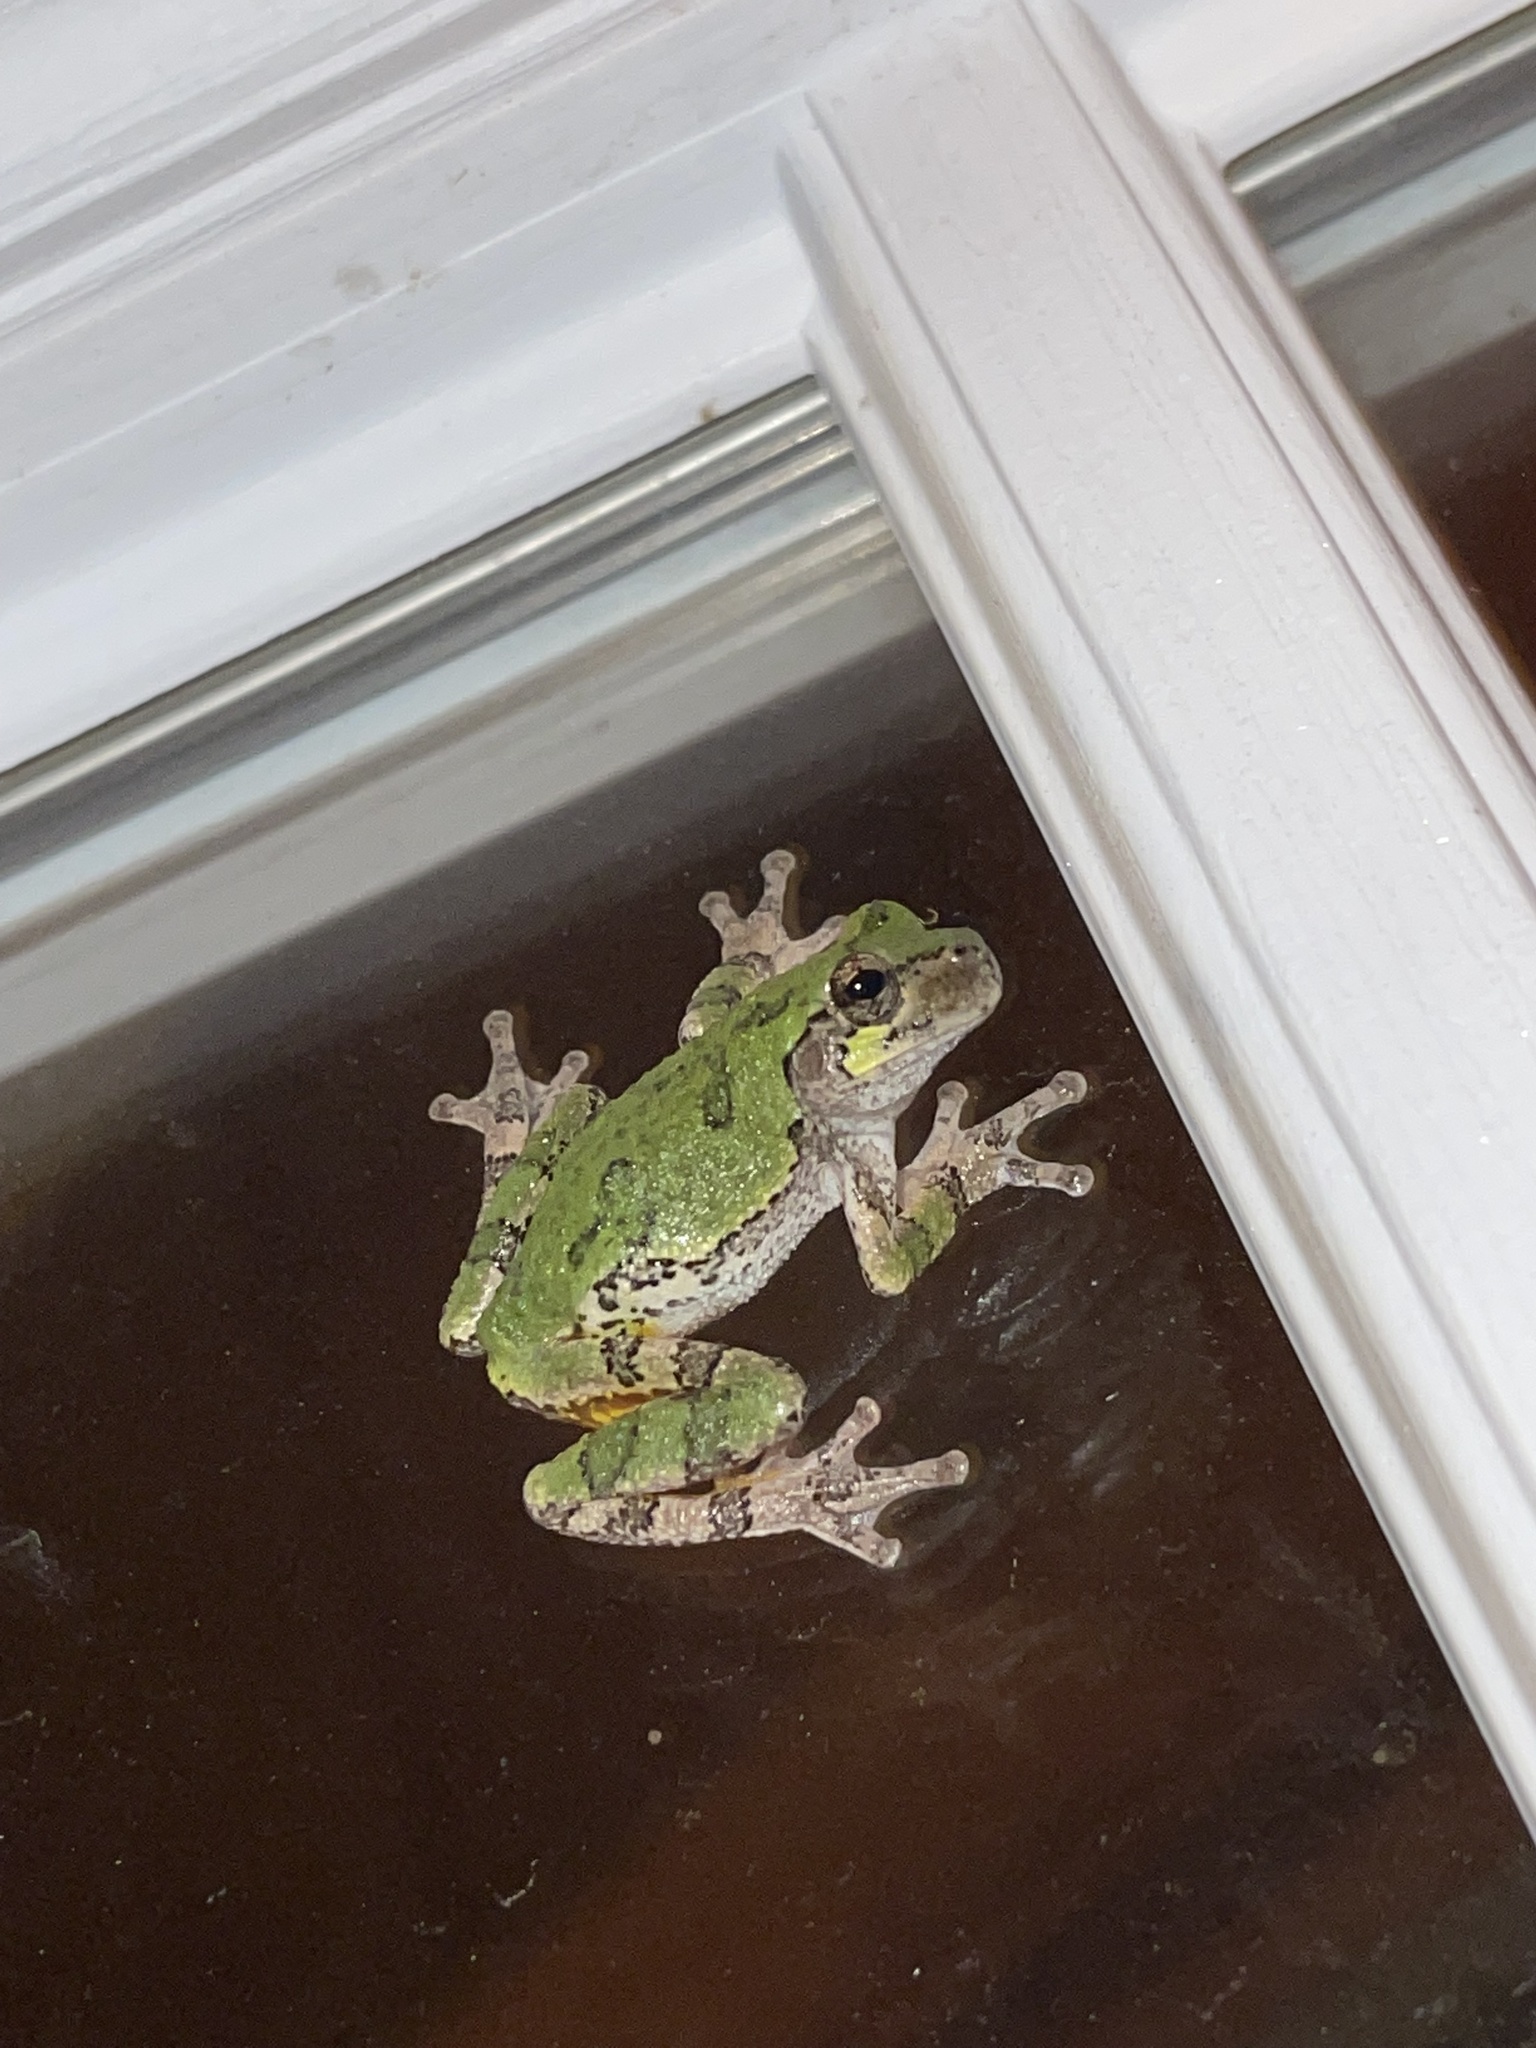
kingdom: Animalia
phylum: Chordata
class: Amphibia
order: Anura
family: Hylidae
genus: Dryophytes
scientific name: Dryophytes versicolor
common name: Gray treefrog
